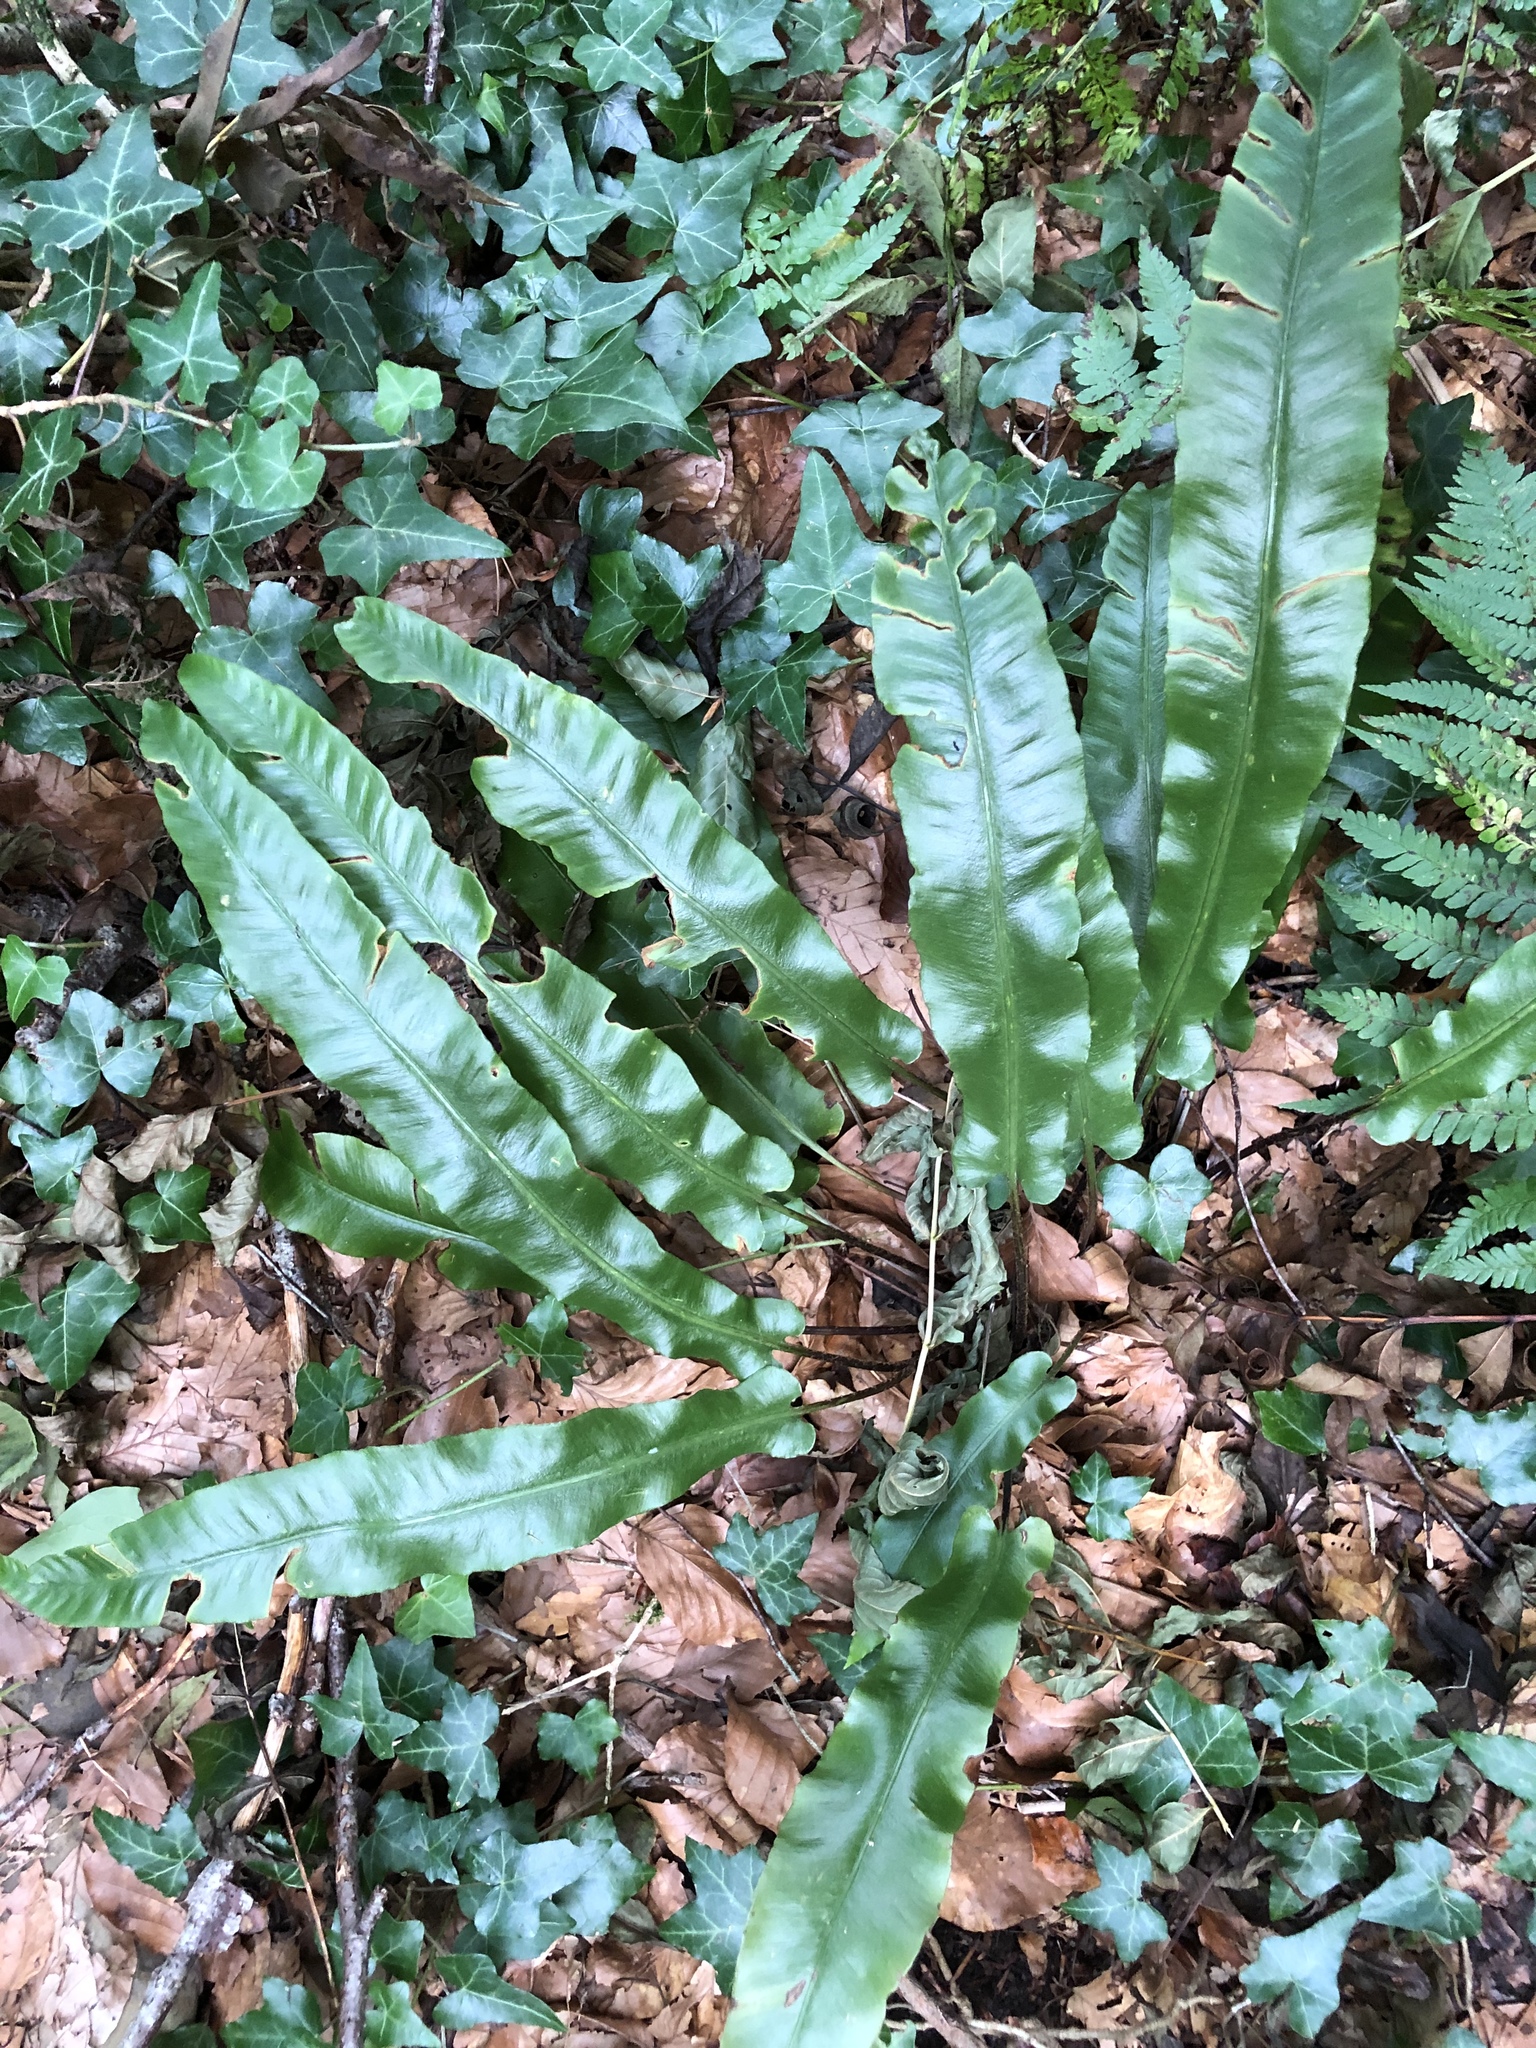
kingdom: Plantae
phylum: Tracheophyta
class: Polypodiopsida
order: Polypodiales
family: Aspleniaceae
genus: Asplenium
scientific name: Asplenium scolopendrium
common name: Hart's-tongue fern
